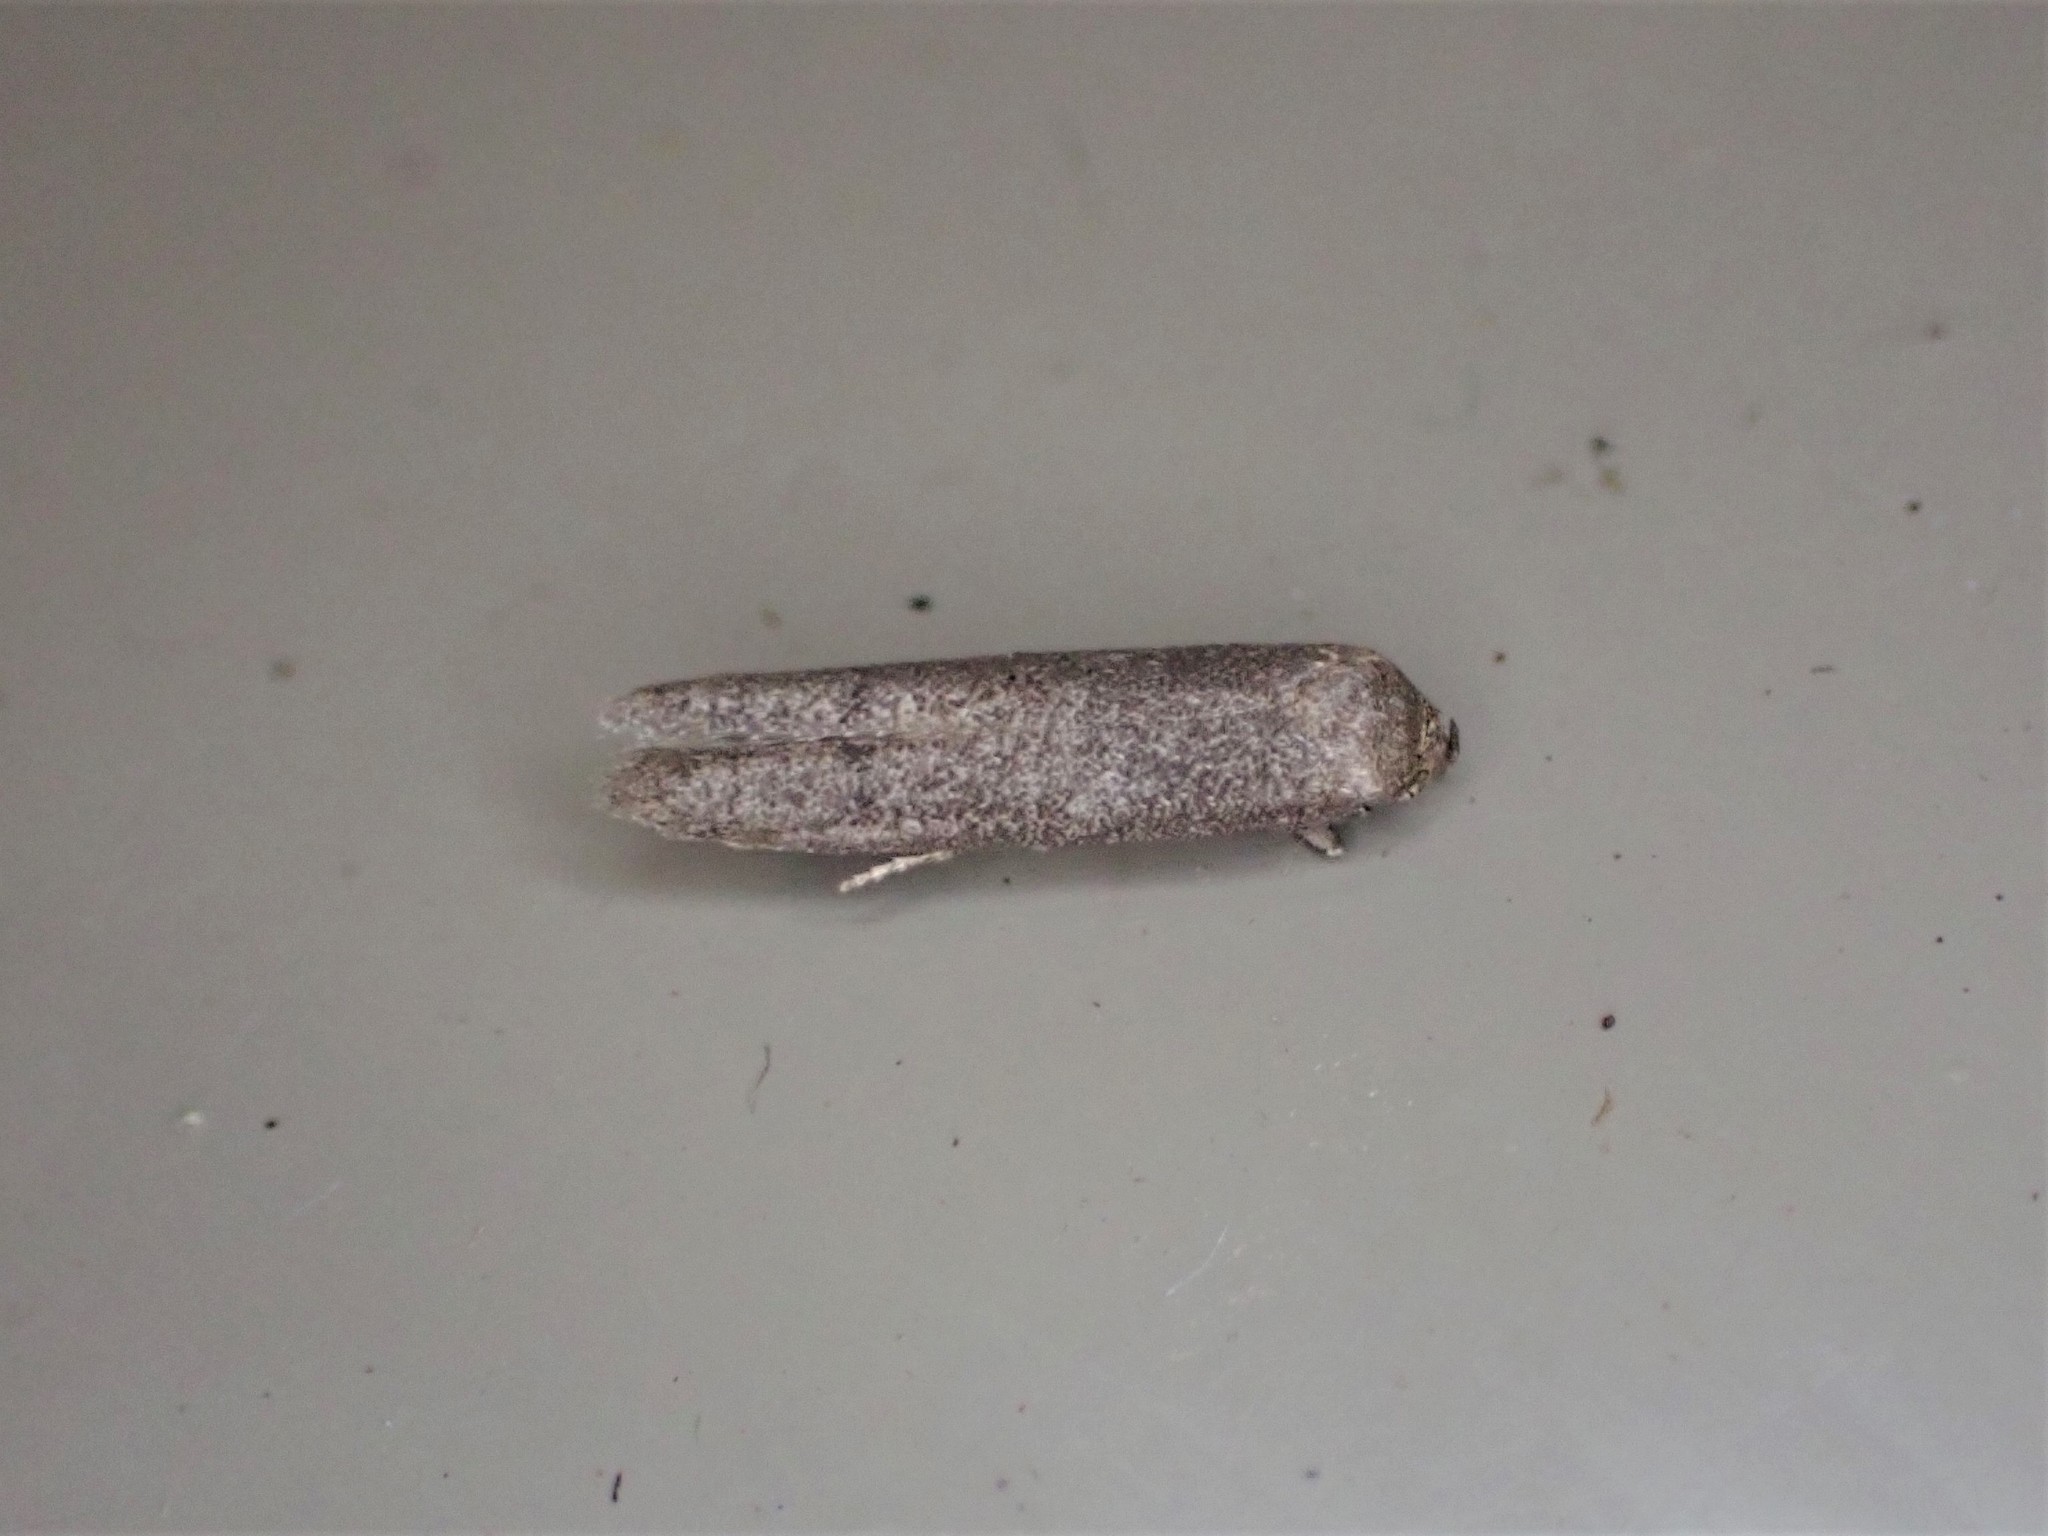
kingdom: Animalia
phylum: Arthropoda
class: Insecta
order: Lepidoptera
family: Blastobasidae
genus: Blastobasis
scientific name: Blastobasis tarda
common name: Blastobasid moth
